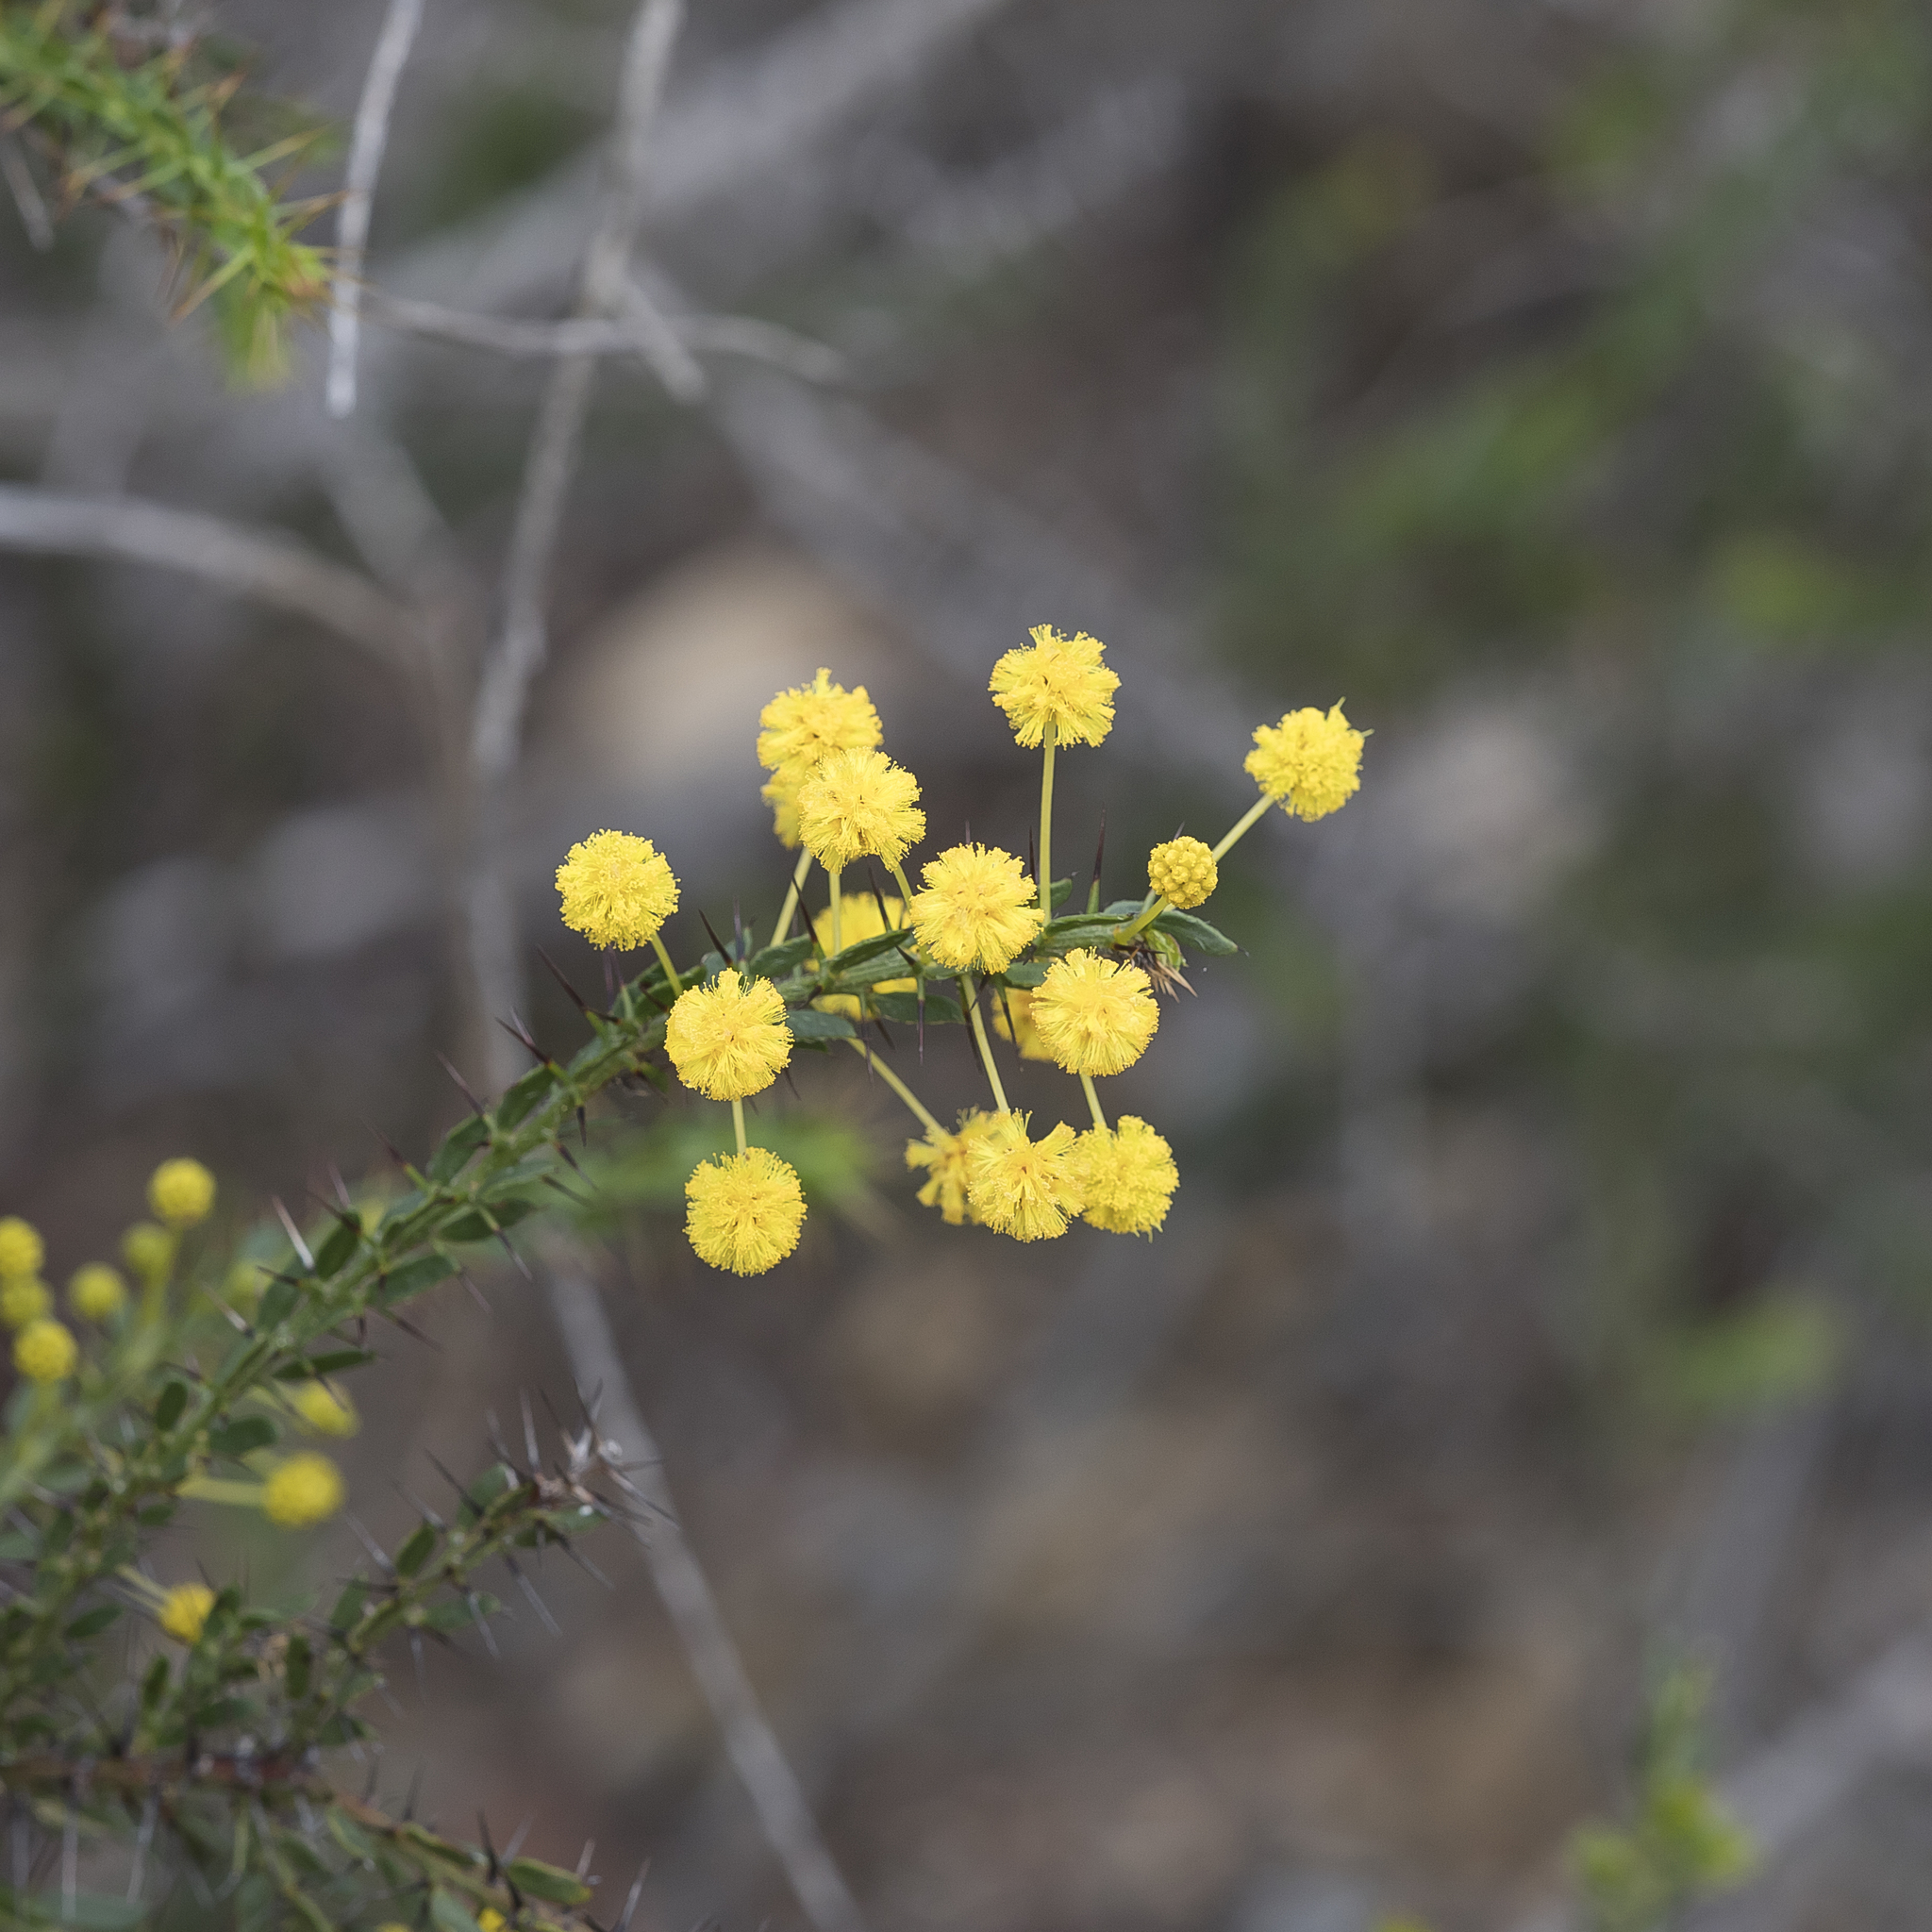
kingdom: Plantae
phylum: Tracheophyta
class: Magnoliopsida
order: Fabales
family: Fabaceae
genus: Acacia
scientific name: Acacia paradoxa
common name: Paradox acacia
